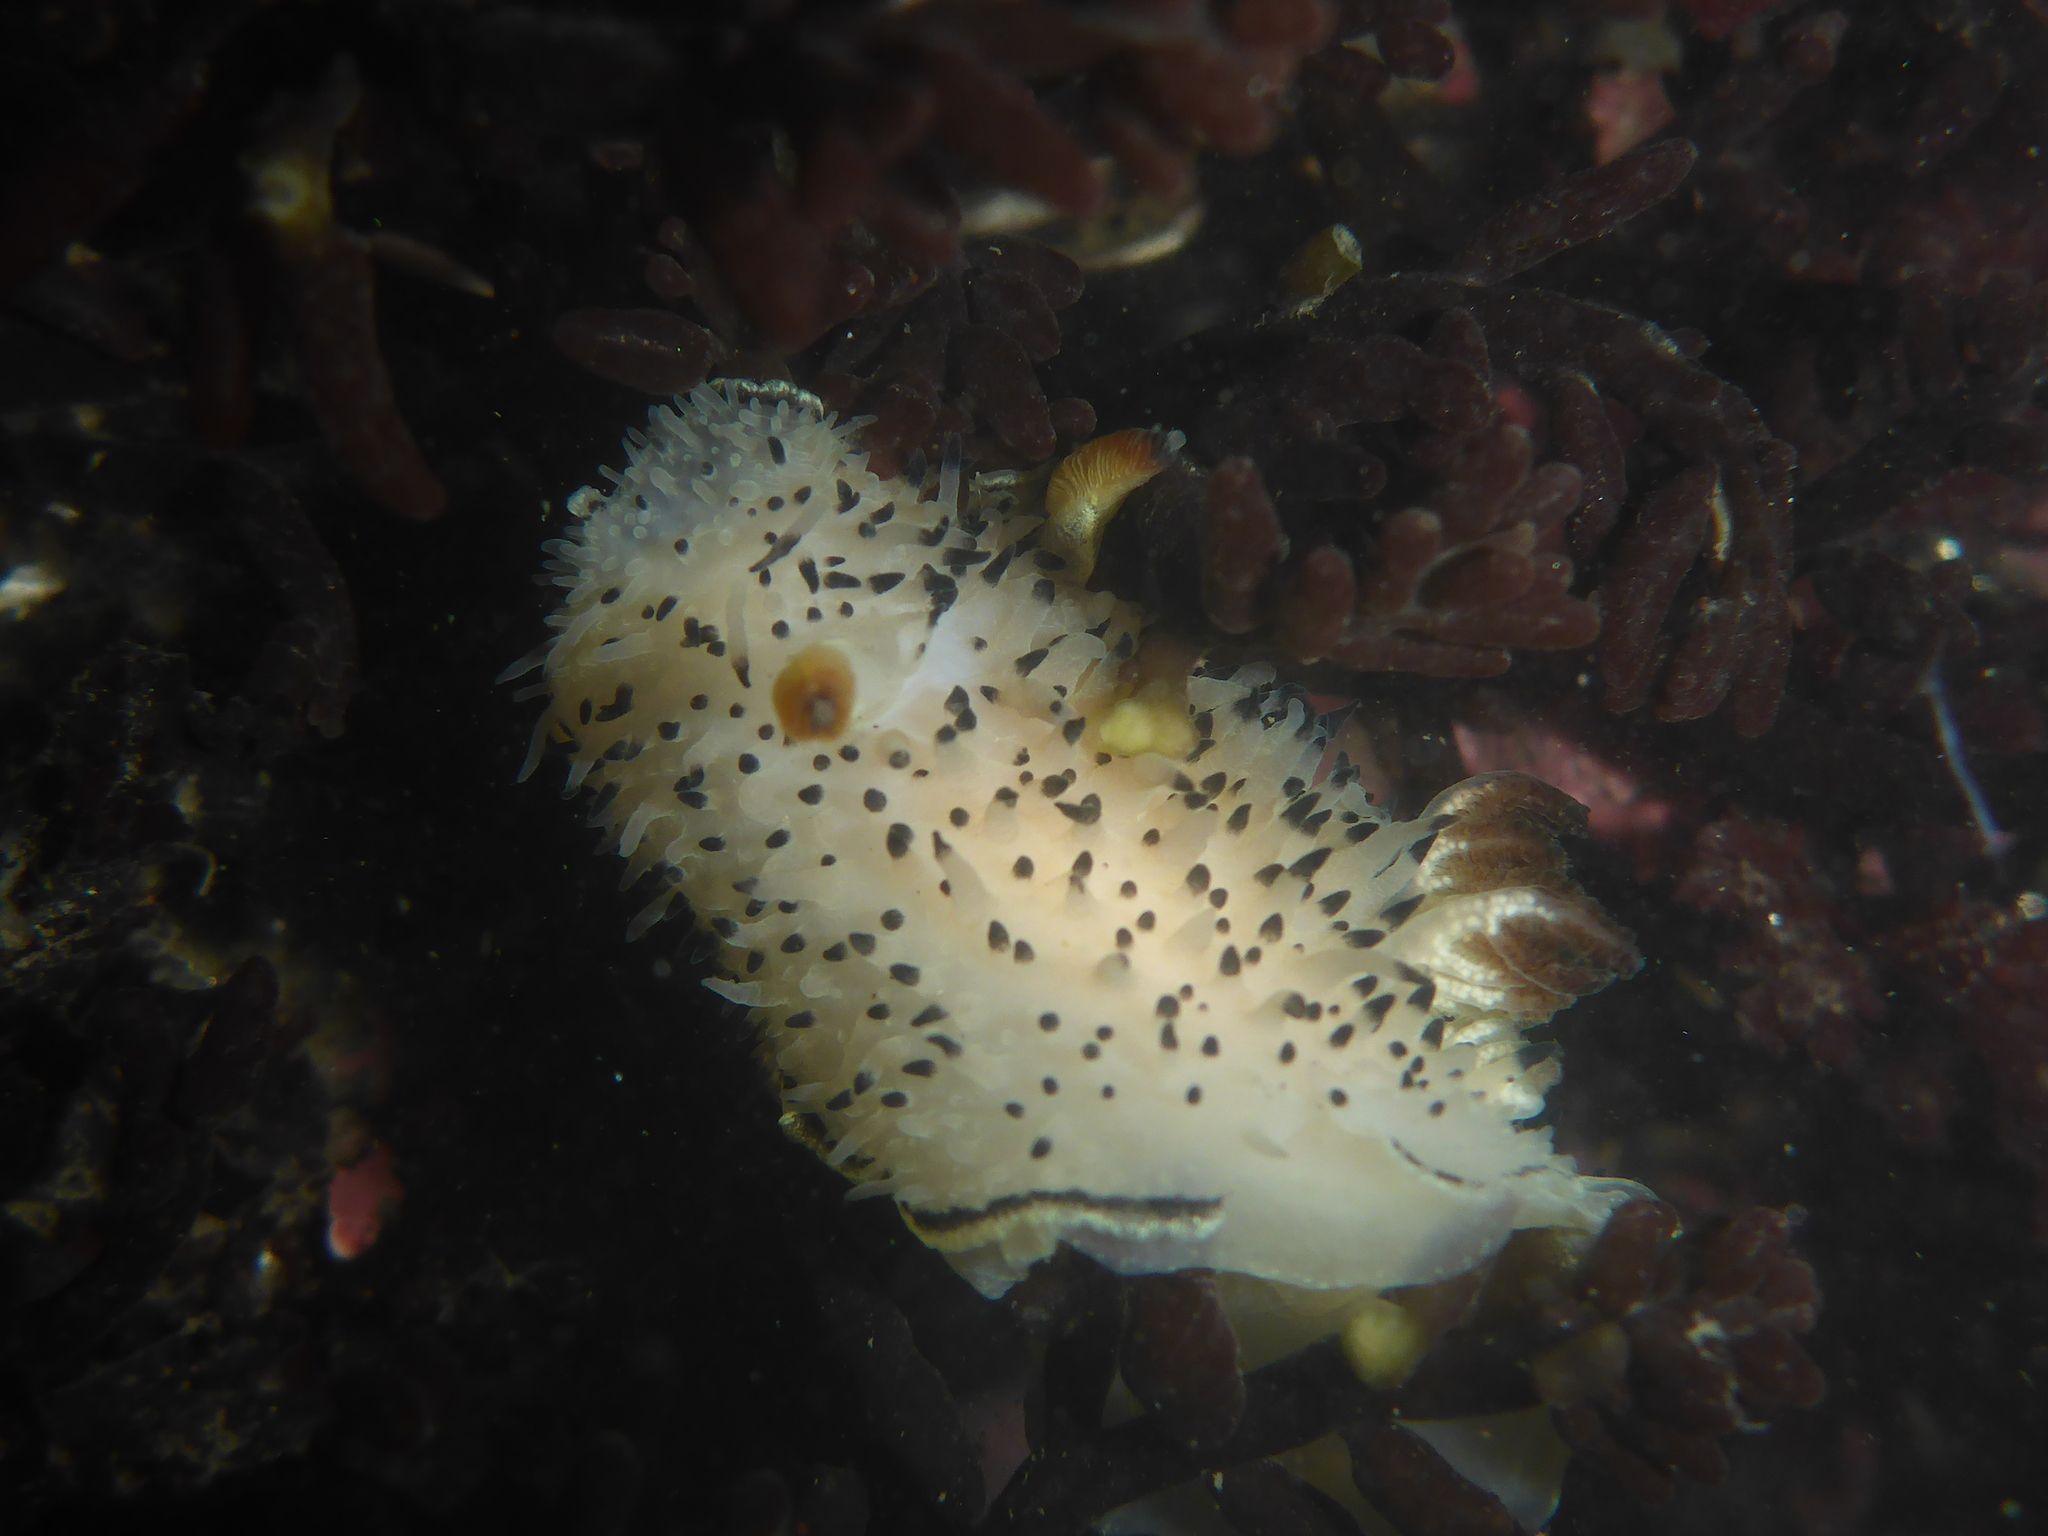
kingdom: Animalia
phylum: Mollusca
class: Gastropoda
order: Nudibranchia
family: Onchidorididae
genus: Acanthodoris
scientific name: Acanthodoris rhodoceras
